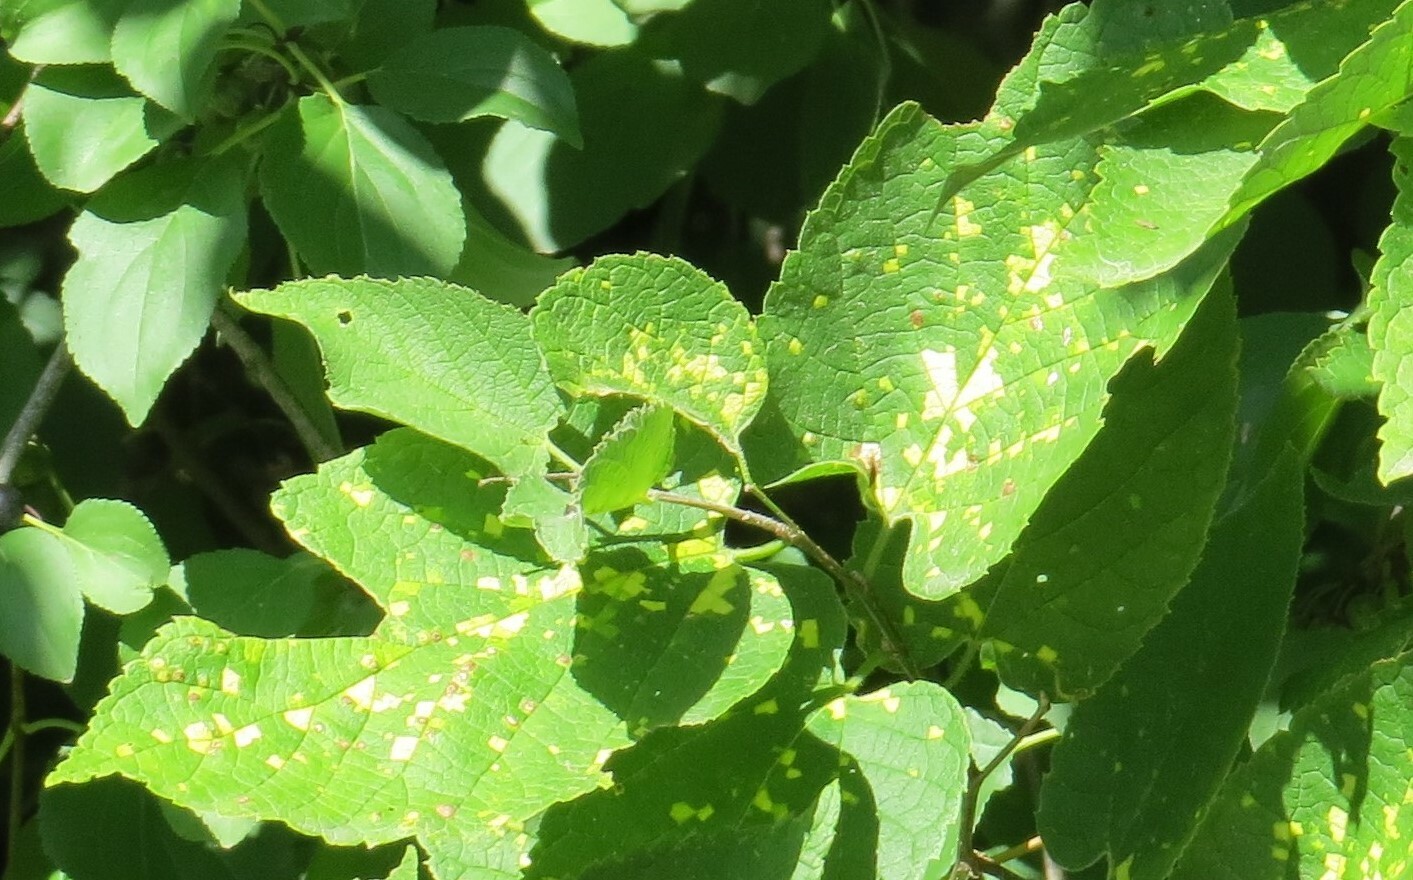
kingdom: Viruses
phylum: Kitrinoviricota
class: Alsuviricetes
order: Martellivirales
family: Closteroviridae
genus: Ampelovirus
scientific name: Ampelovirus
